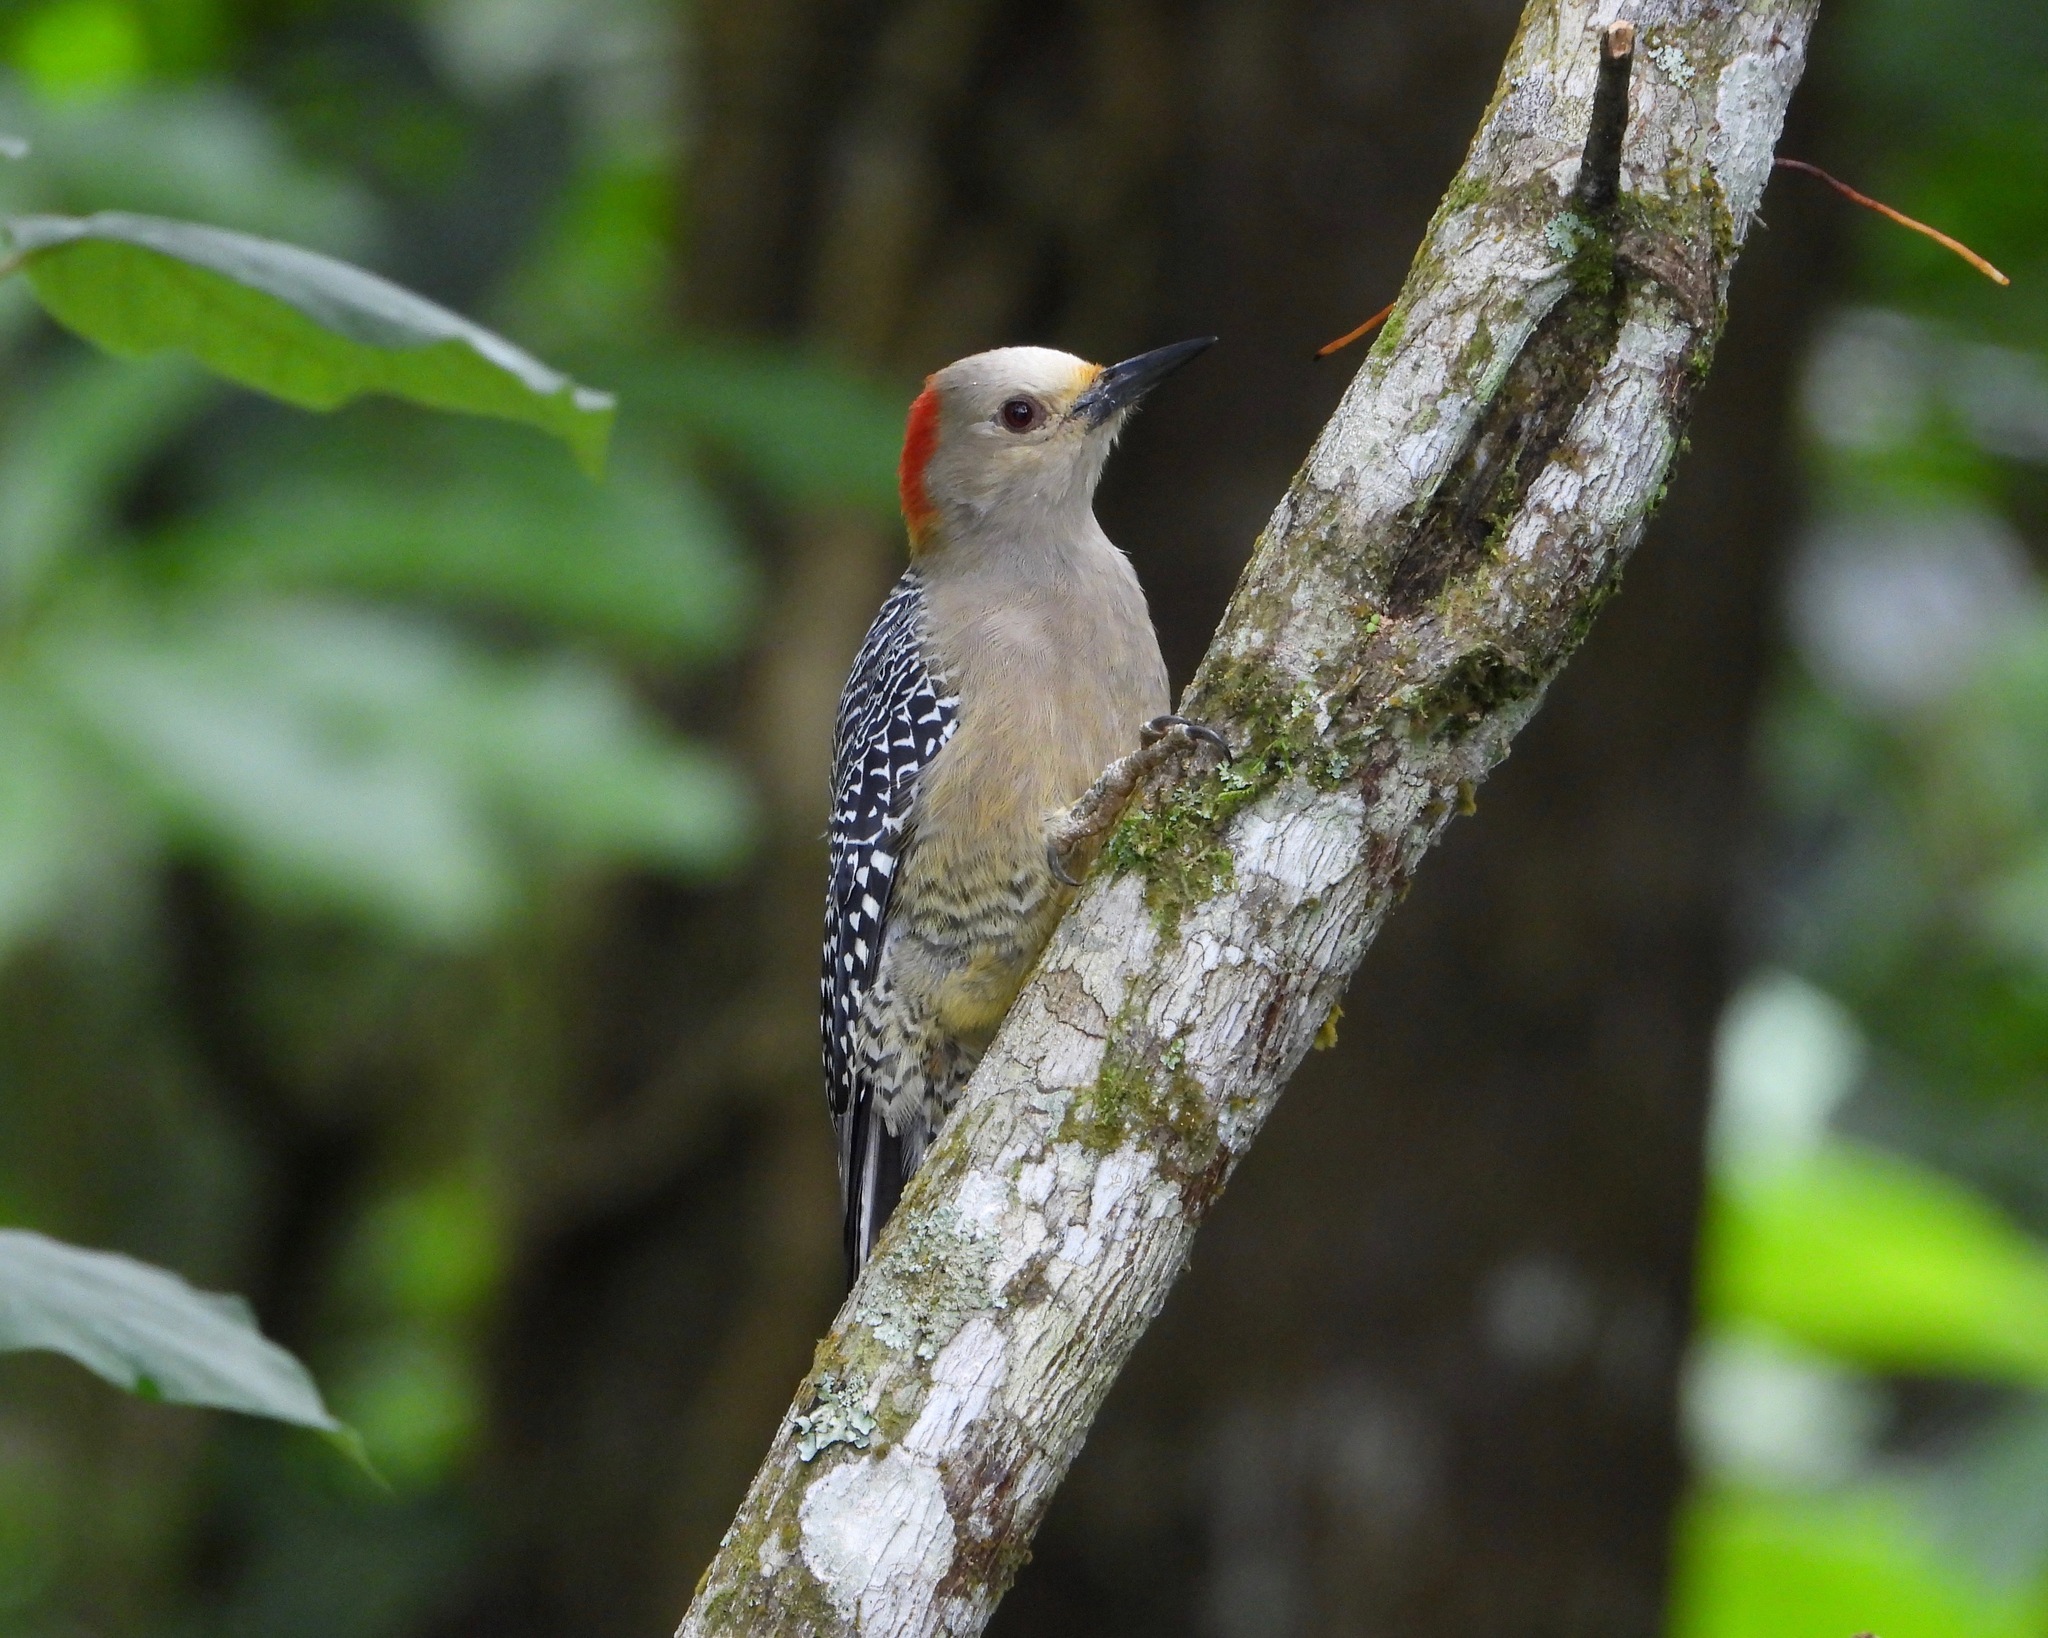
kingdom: Animalia
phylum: Chordata
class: Aves
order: Piciformes
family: Picidae
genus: Melanerpes
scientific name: Melanerpes aurifrons
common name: Golden-fronted woodpecker
